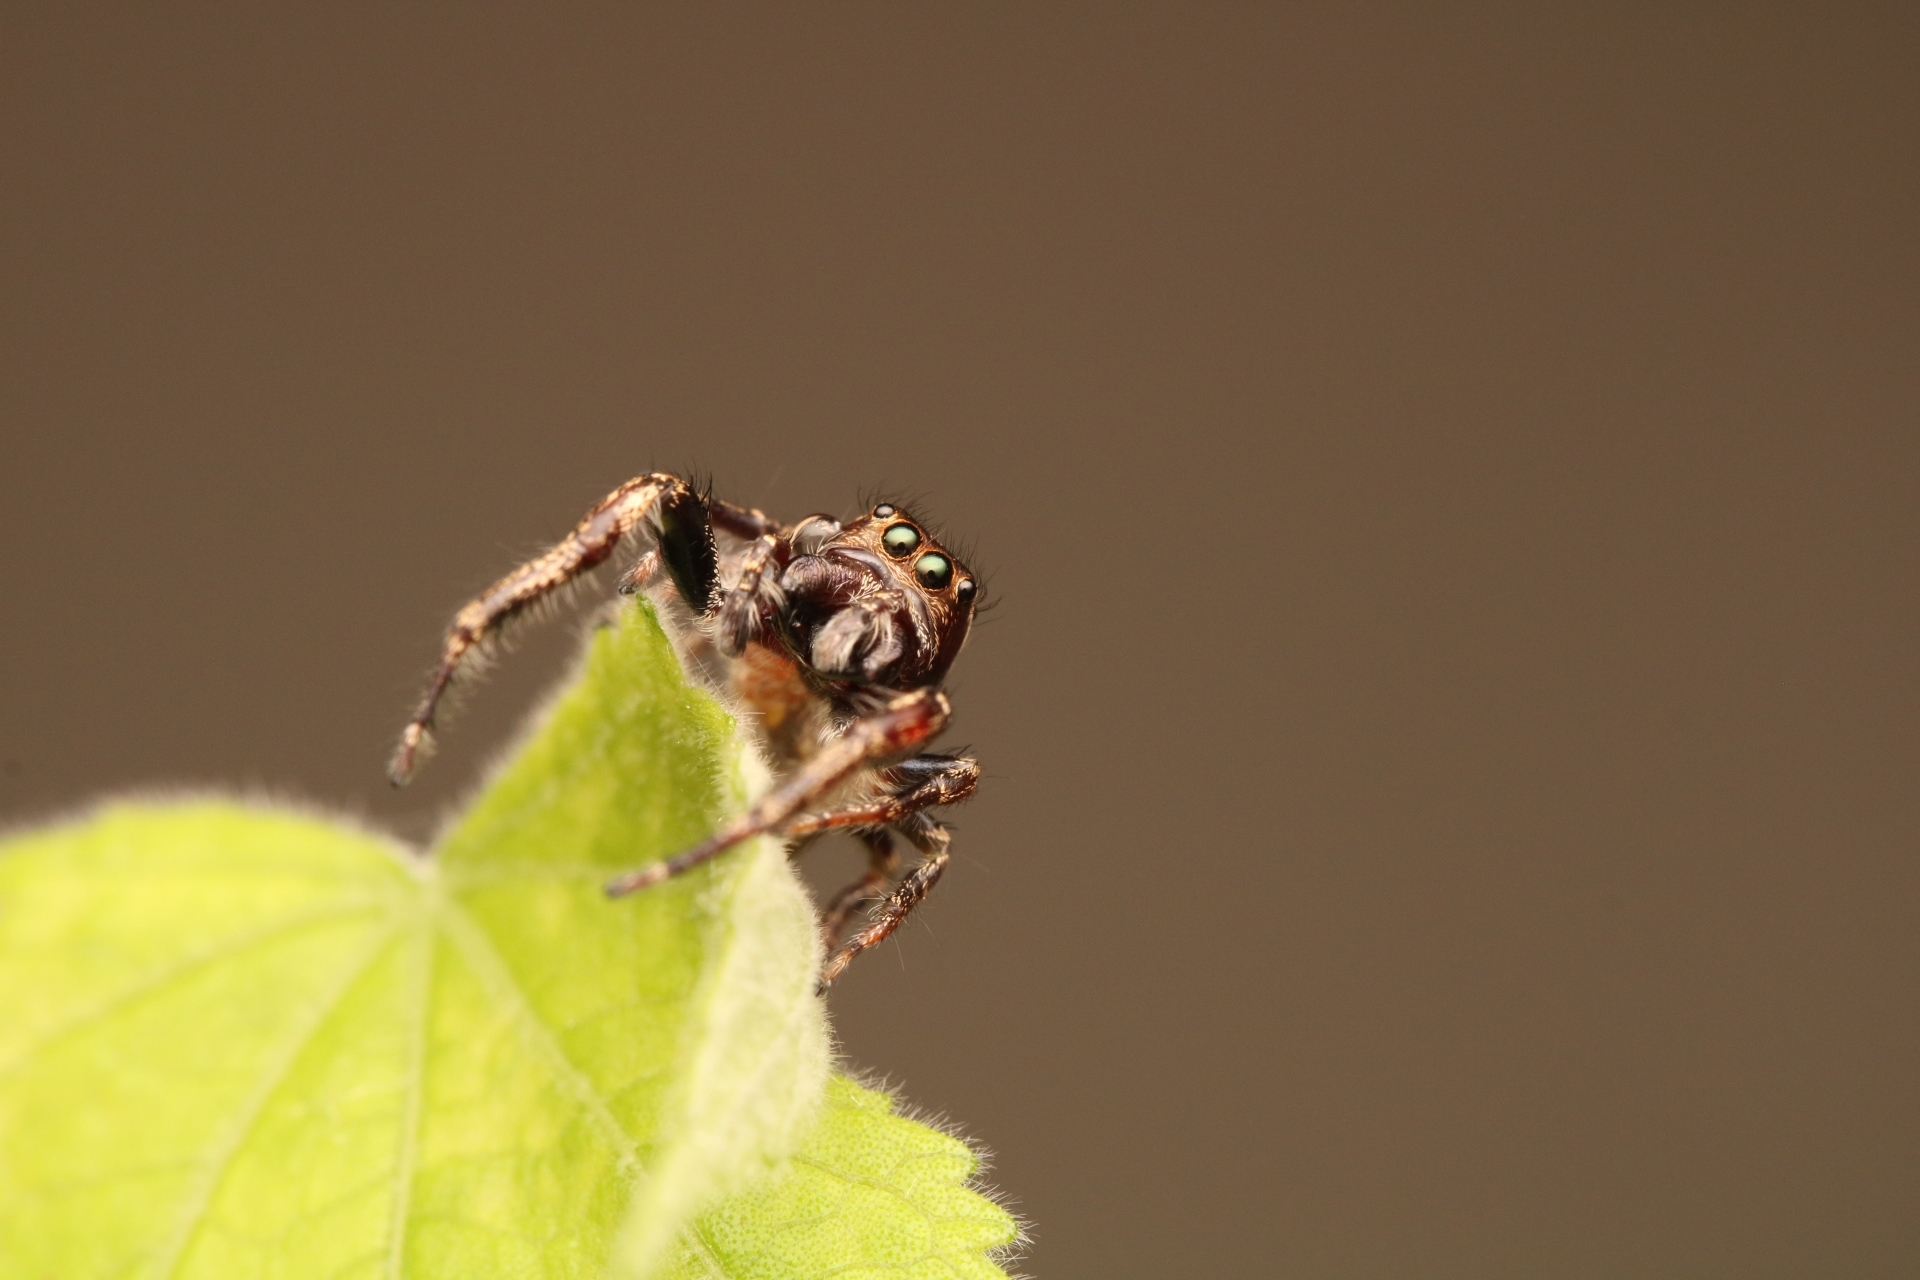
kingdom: Animalia
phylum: Arthropoda
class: Arachnida
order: Araneae
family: Salticidae
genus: Eris
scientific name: Eris militaris
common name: Bronze jumper
